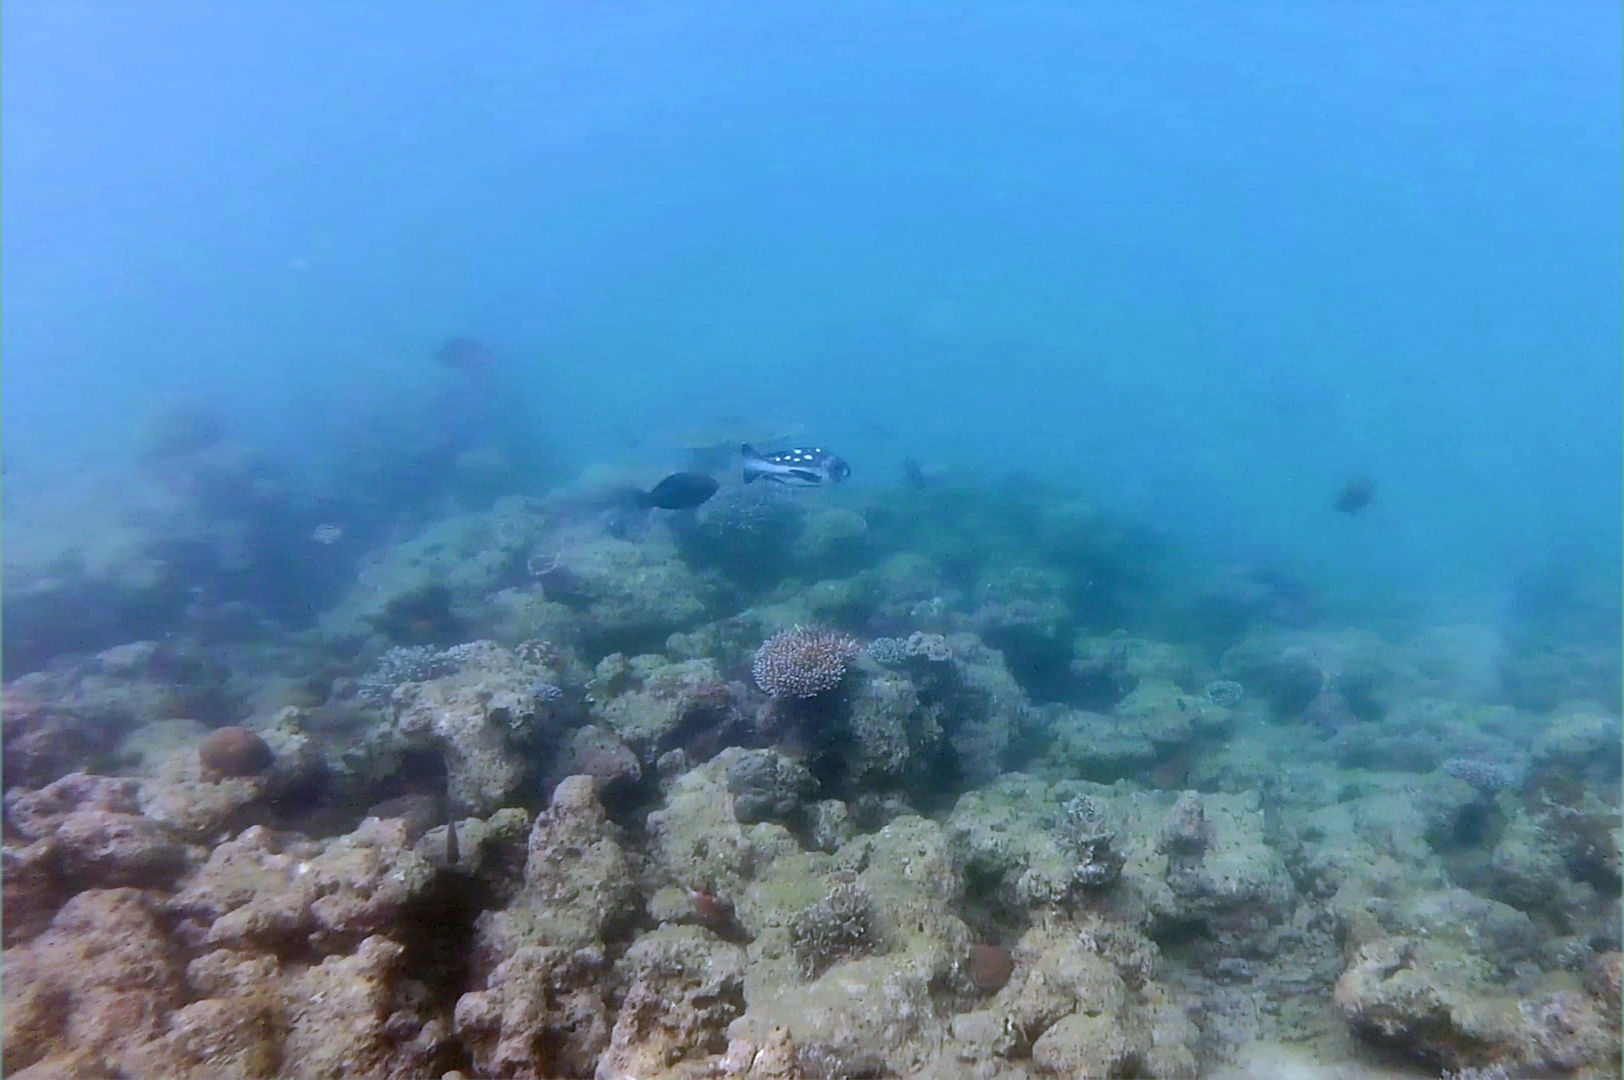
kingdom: Animalia
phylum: Chordata
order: Perciformes
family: Lutjanidae
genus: Macolor
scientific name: Macolor niger
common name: Black snapper
